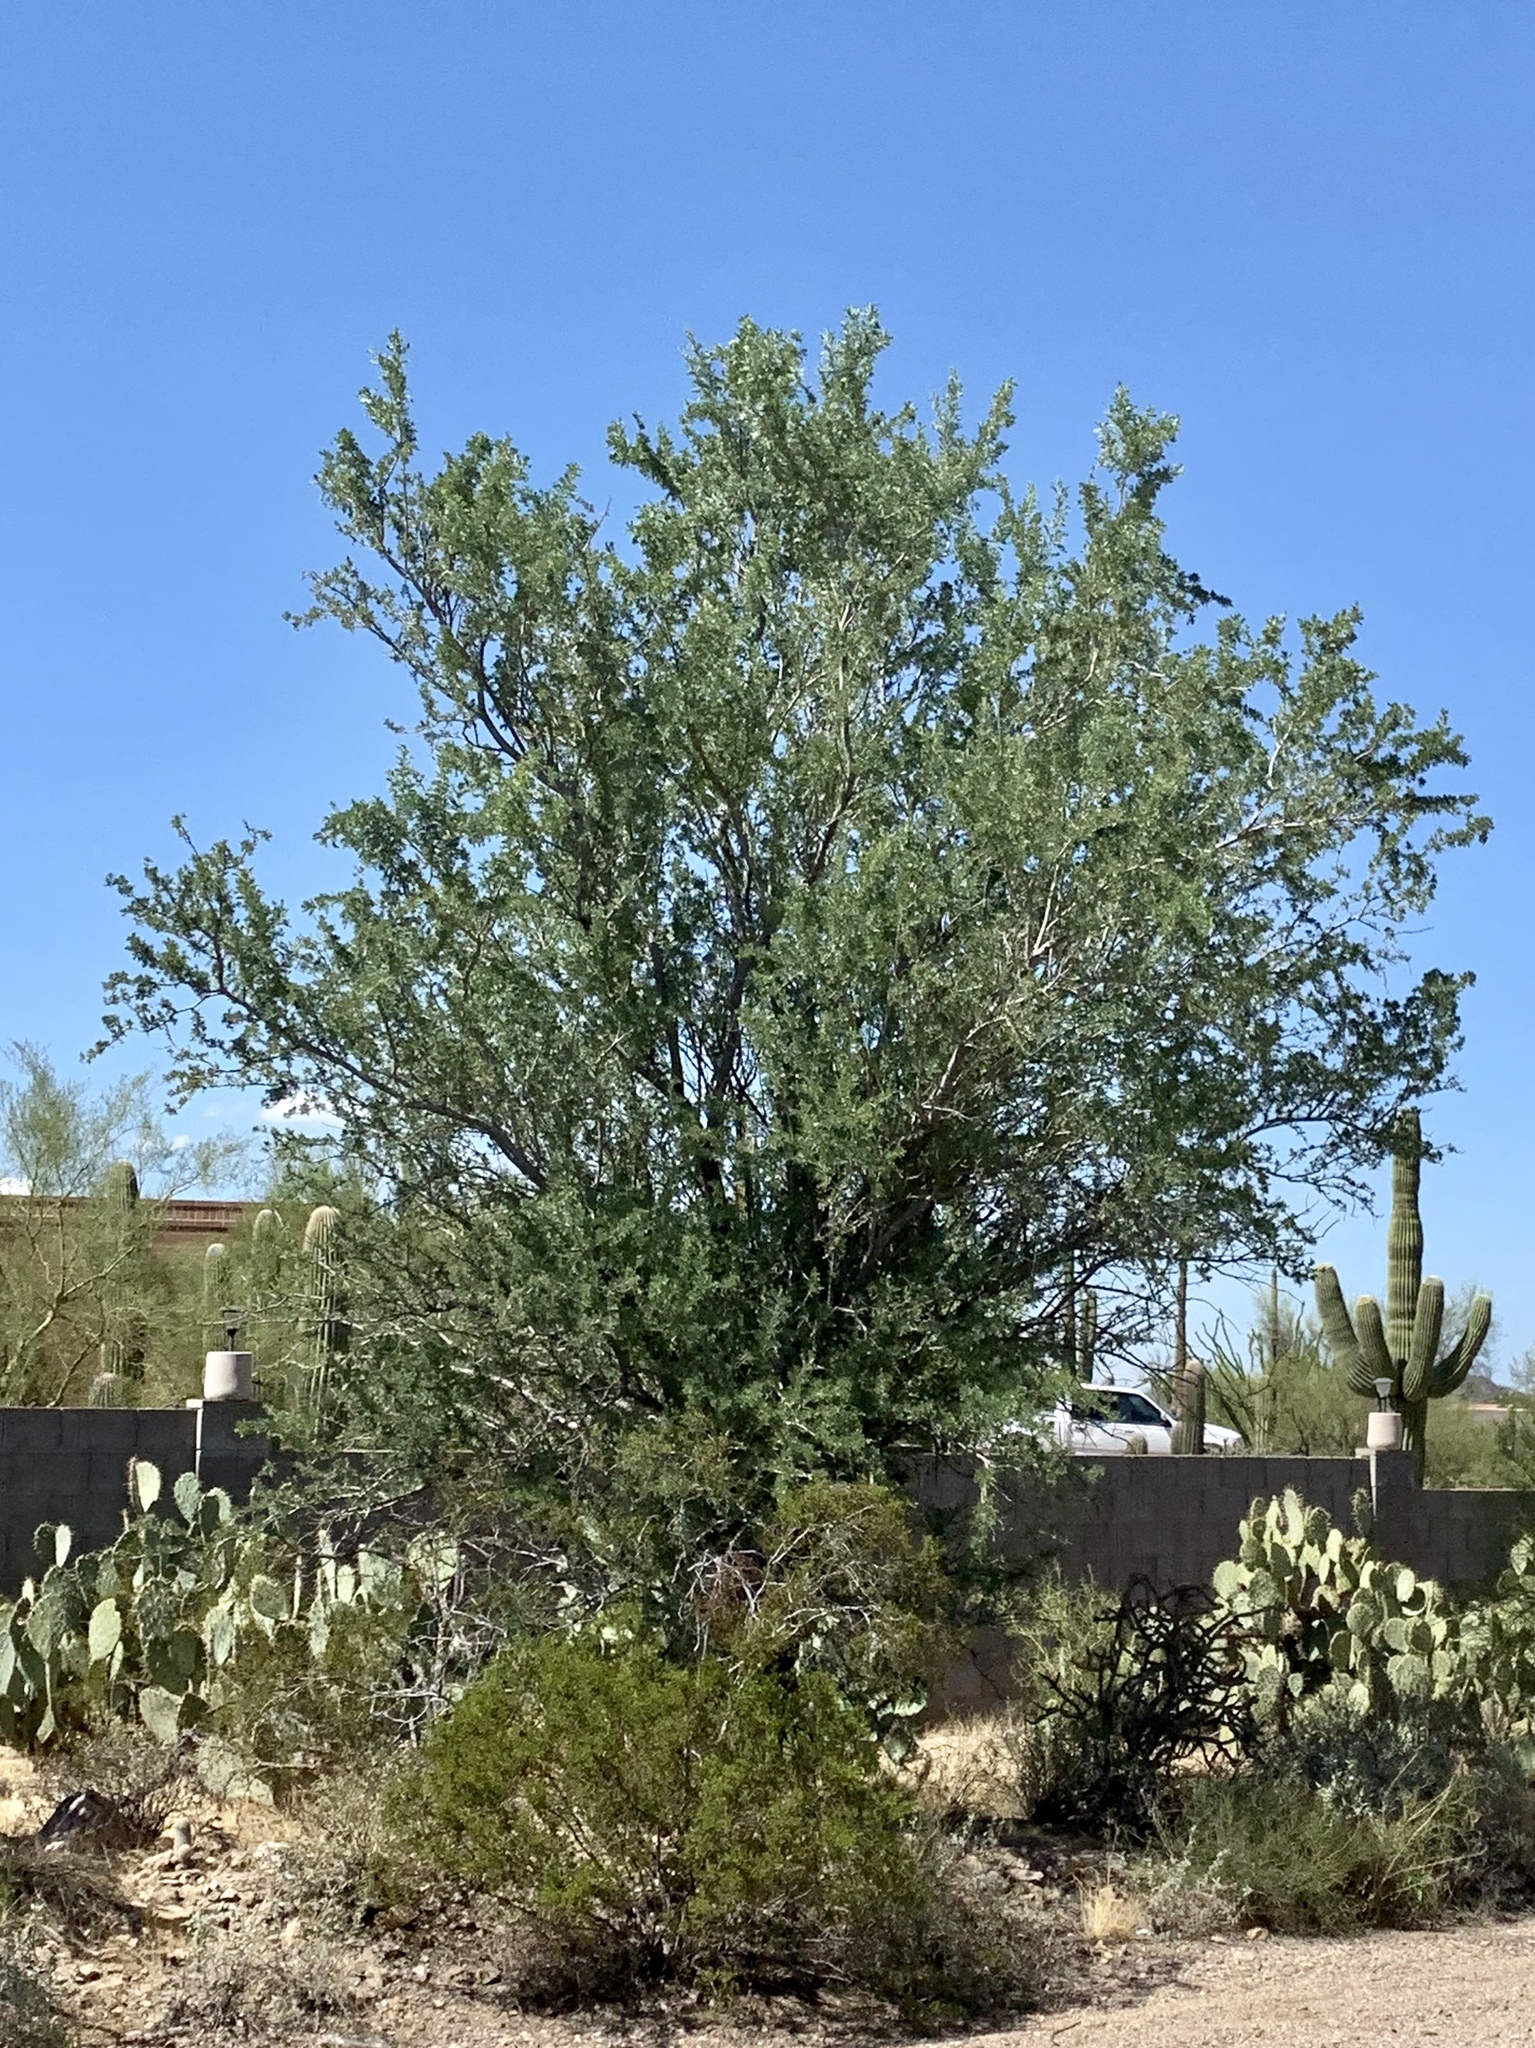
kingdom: Plantae
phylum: Tracheophyta
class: Magnoliopsida
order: Fabales
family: Fabaceae
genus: Olneya
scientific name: Olneya tesota
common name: Desert ironwood
